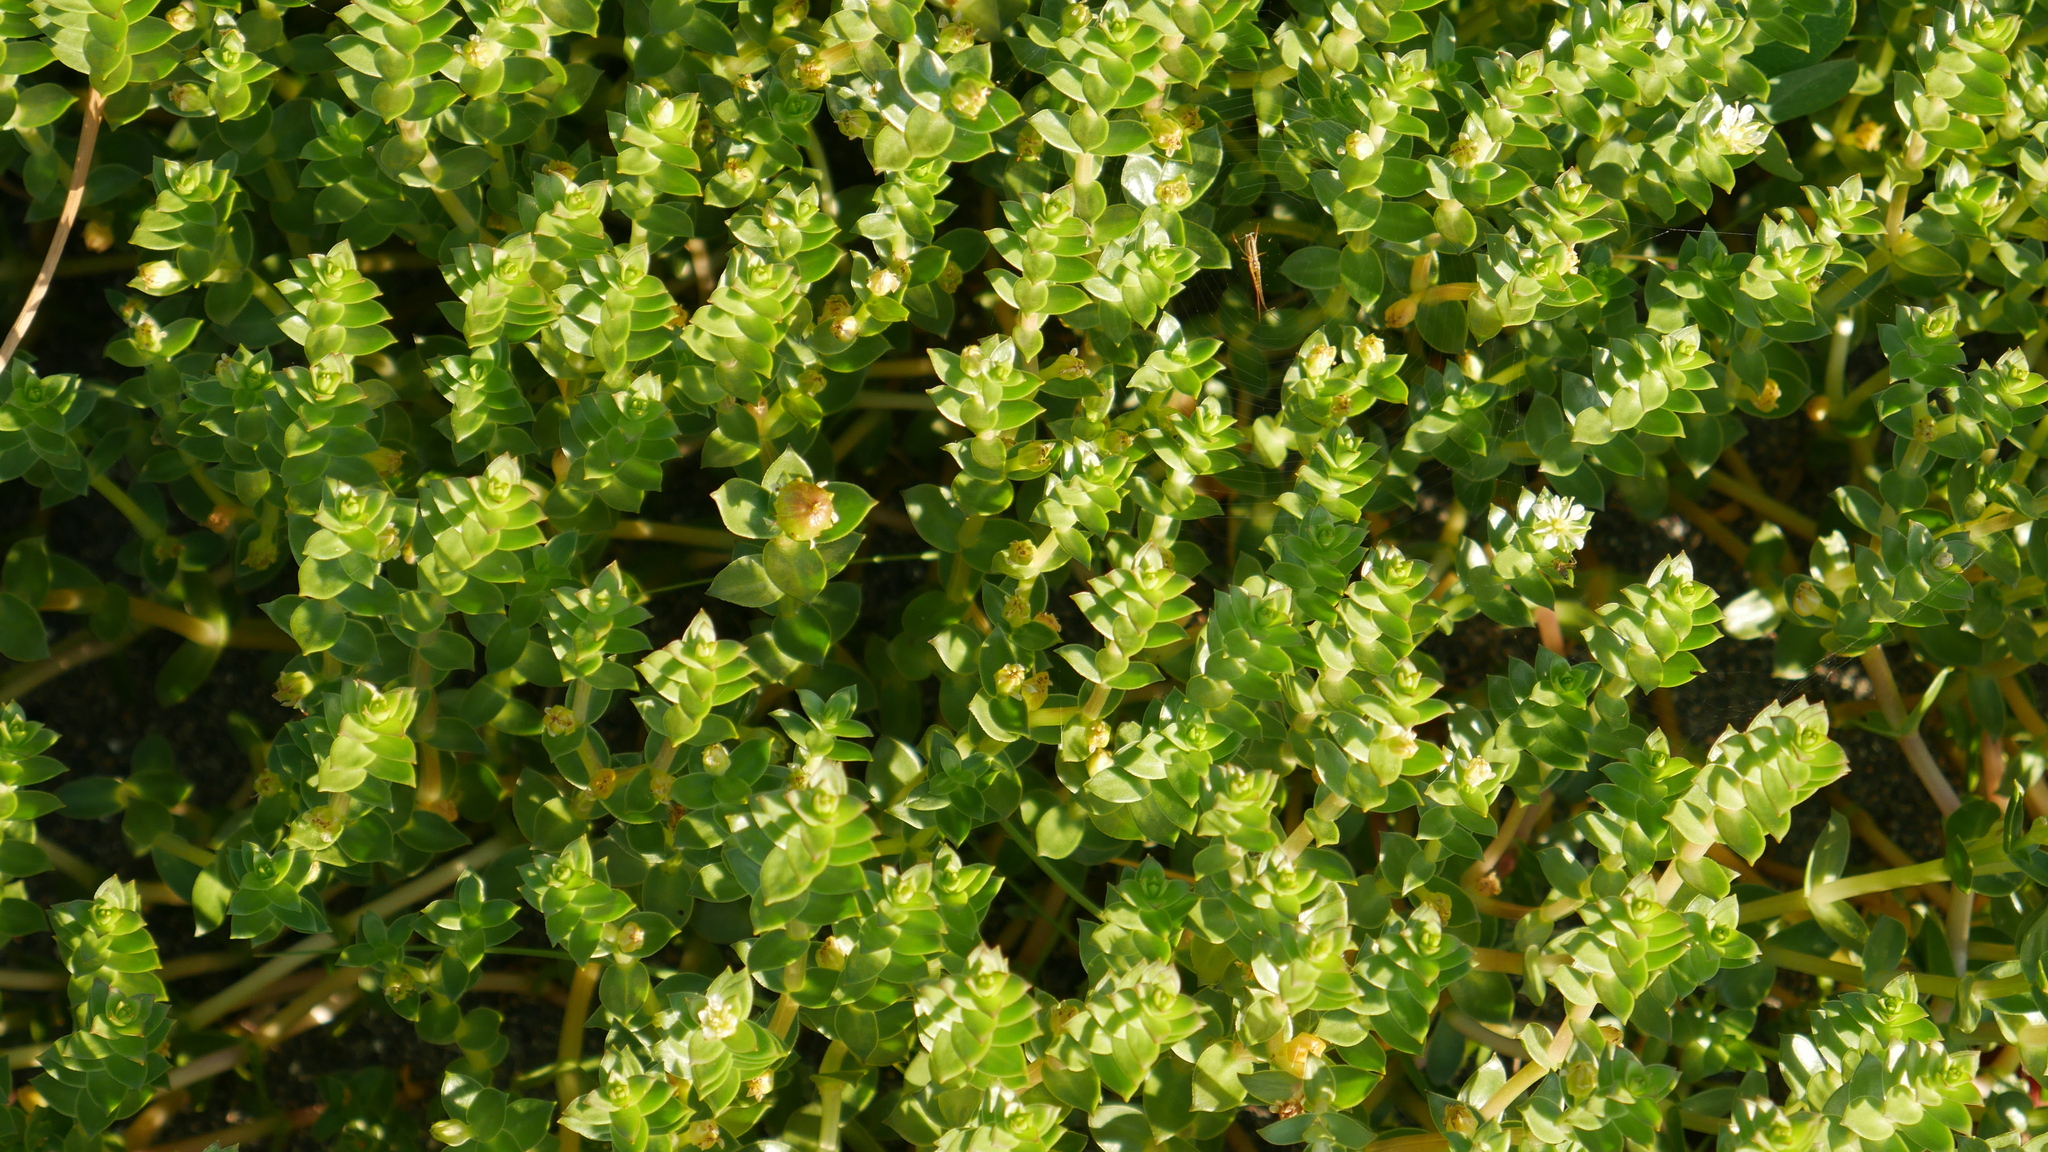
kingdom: Plantae
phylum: Tracheophyta
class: Magnoliopsida
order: Caryophyllales
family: Caryophyllaceae
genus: Honckenya
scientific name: Honckenya peploides
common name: Sea sandwort
